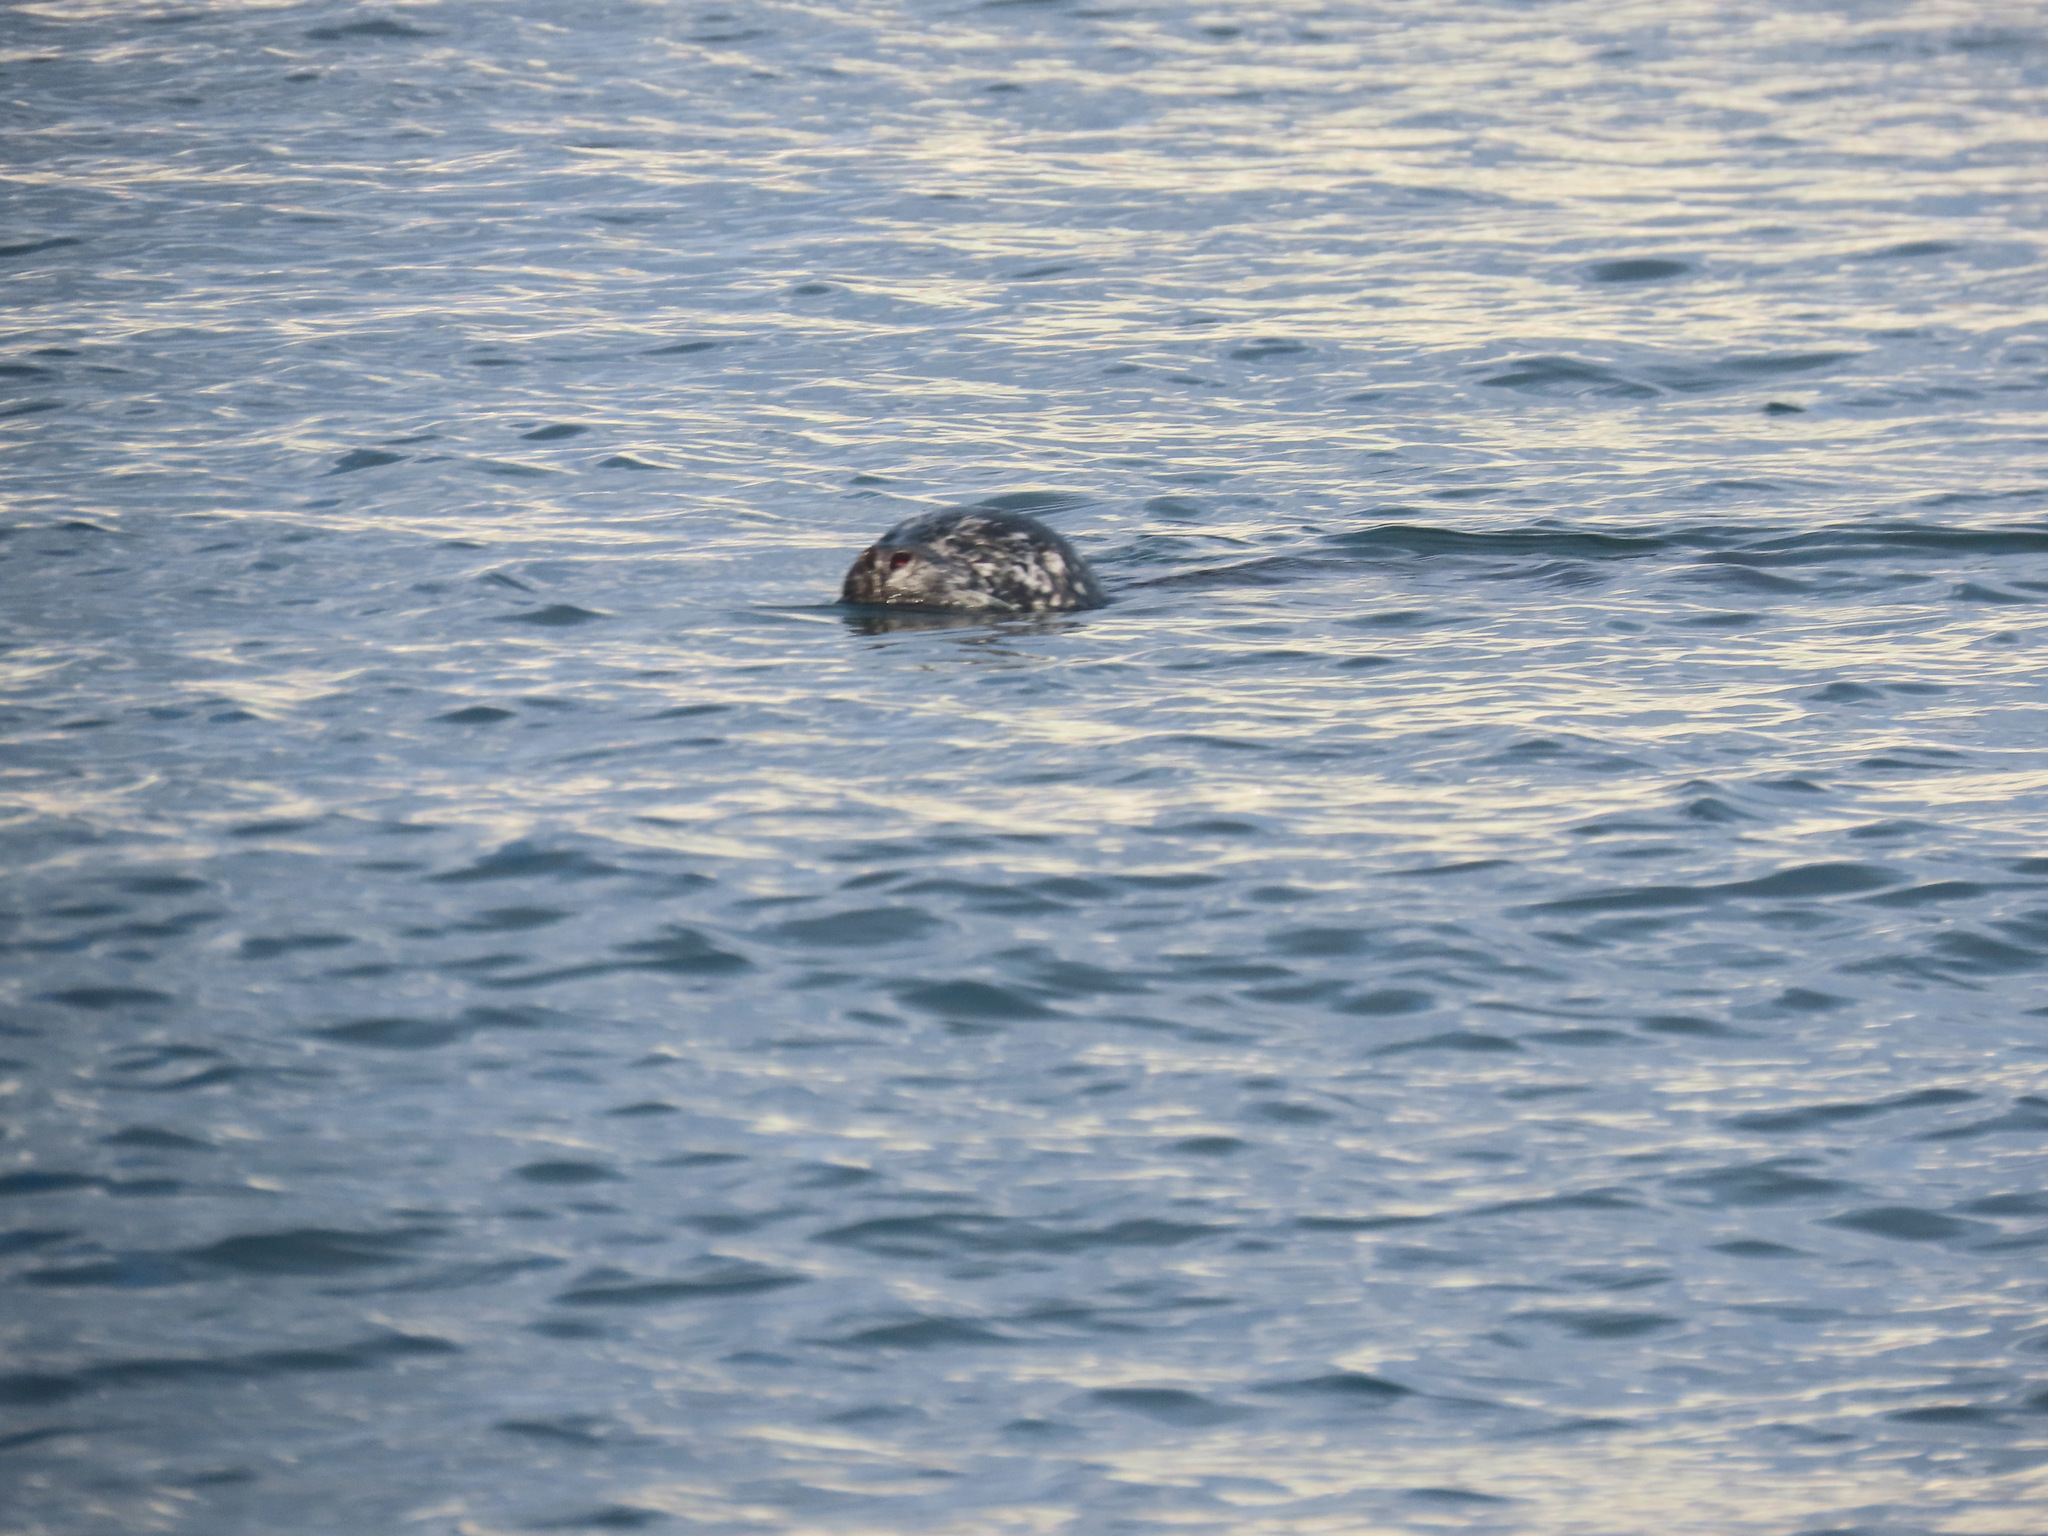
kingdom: Animalia
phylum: Chordata
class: Mammalia
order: Carnivora
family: Phocidae
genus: Phoca
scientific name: Phoca vitulina
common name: Harbor seal
